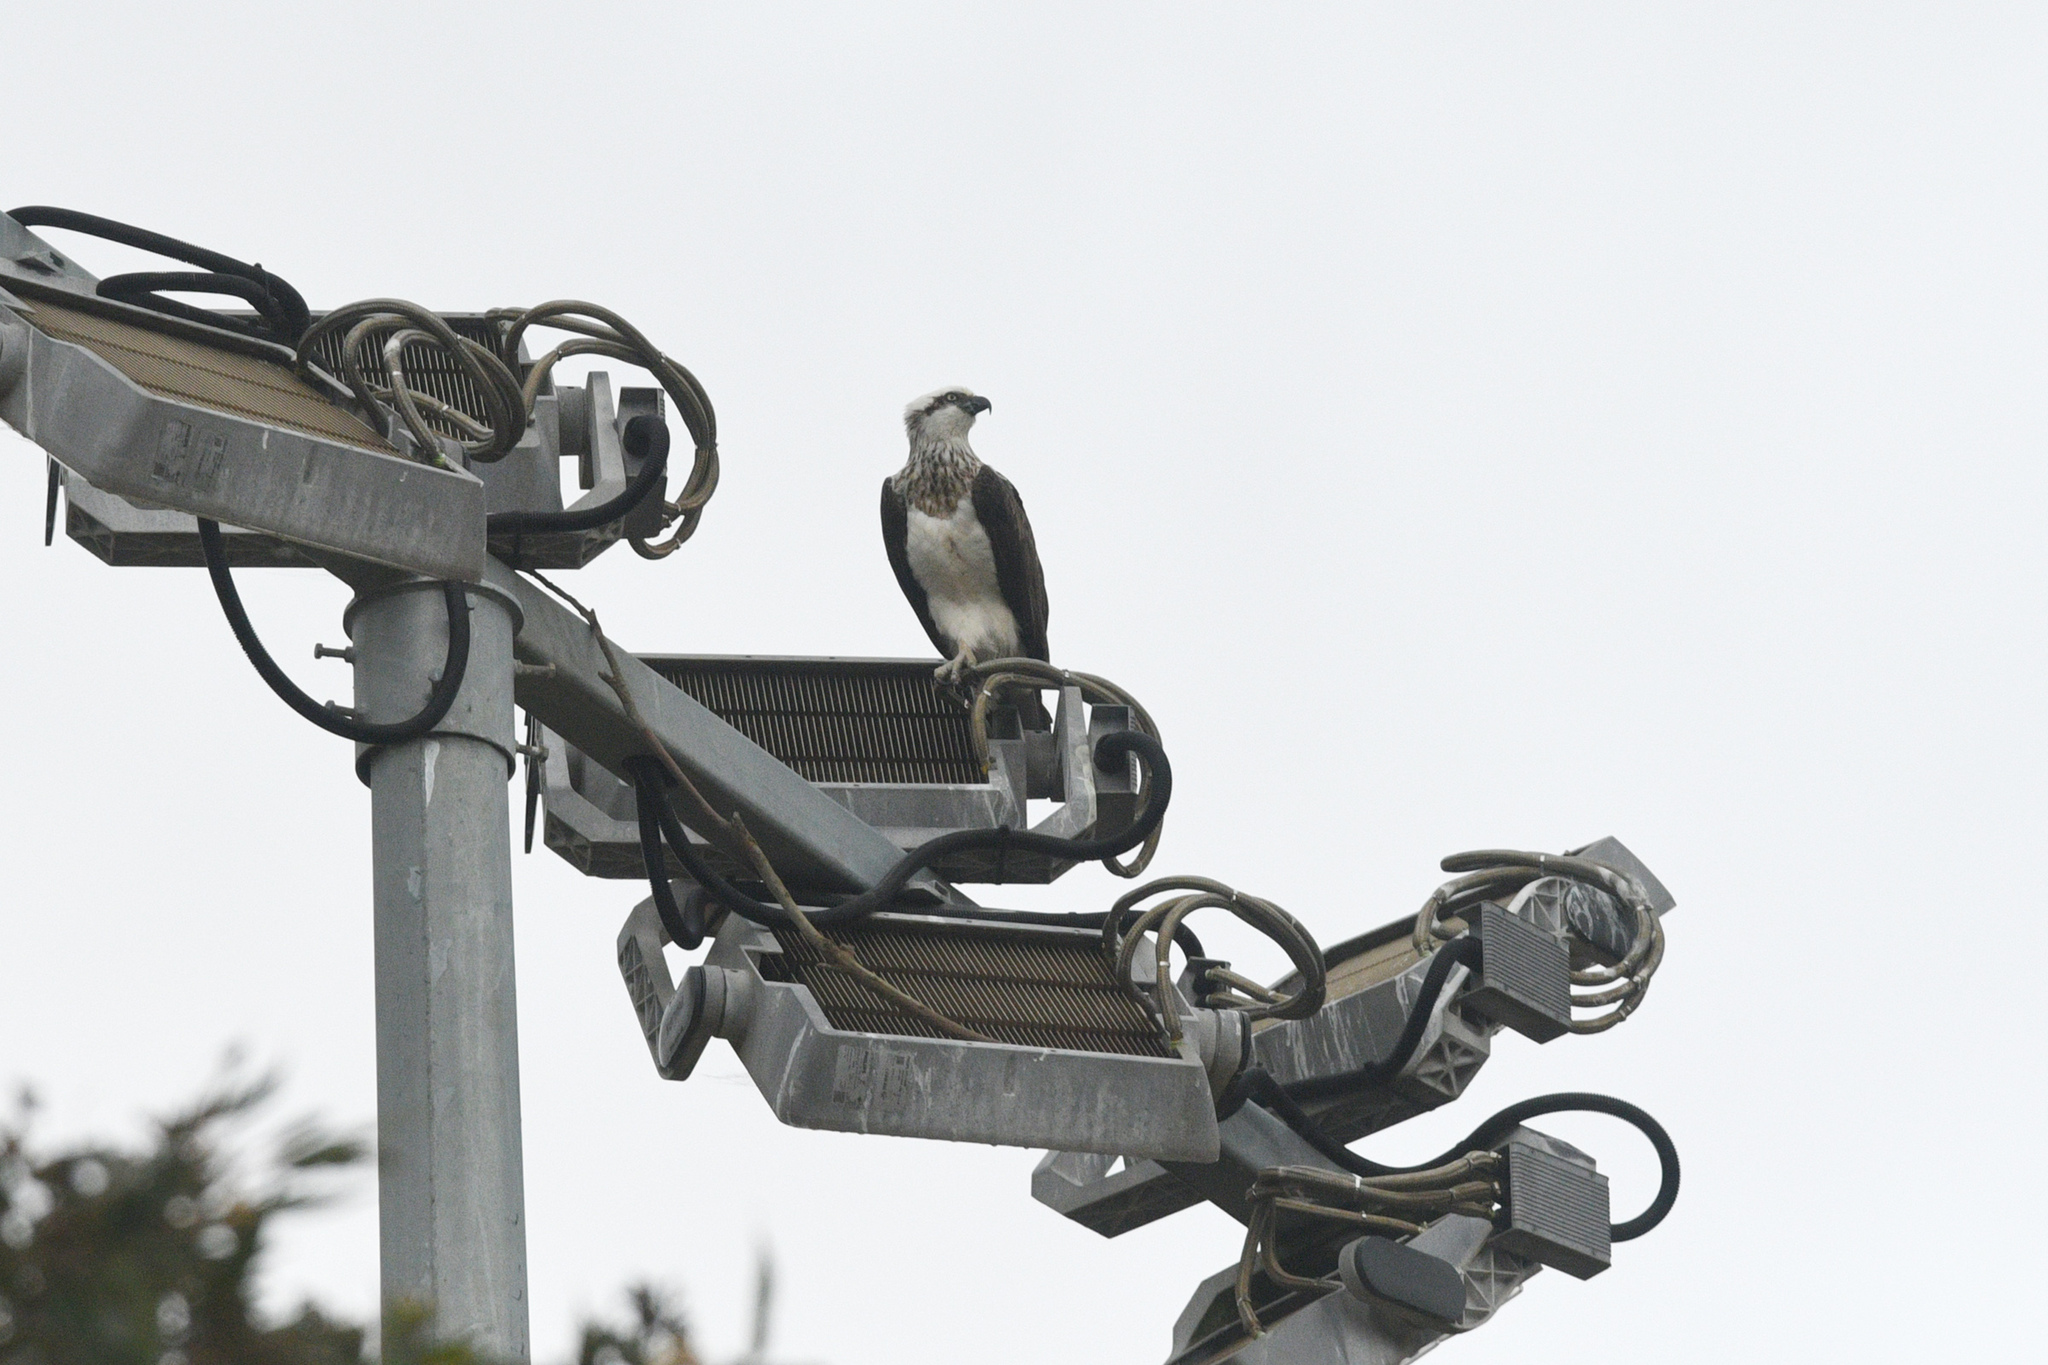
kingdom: Animalia
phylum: Chordata
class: Aves
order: Accipitriformes
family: Pandionidae
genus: Pandion
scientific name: Pandion cristatus
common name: Eastern osprey
